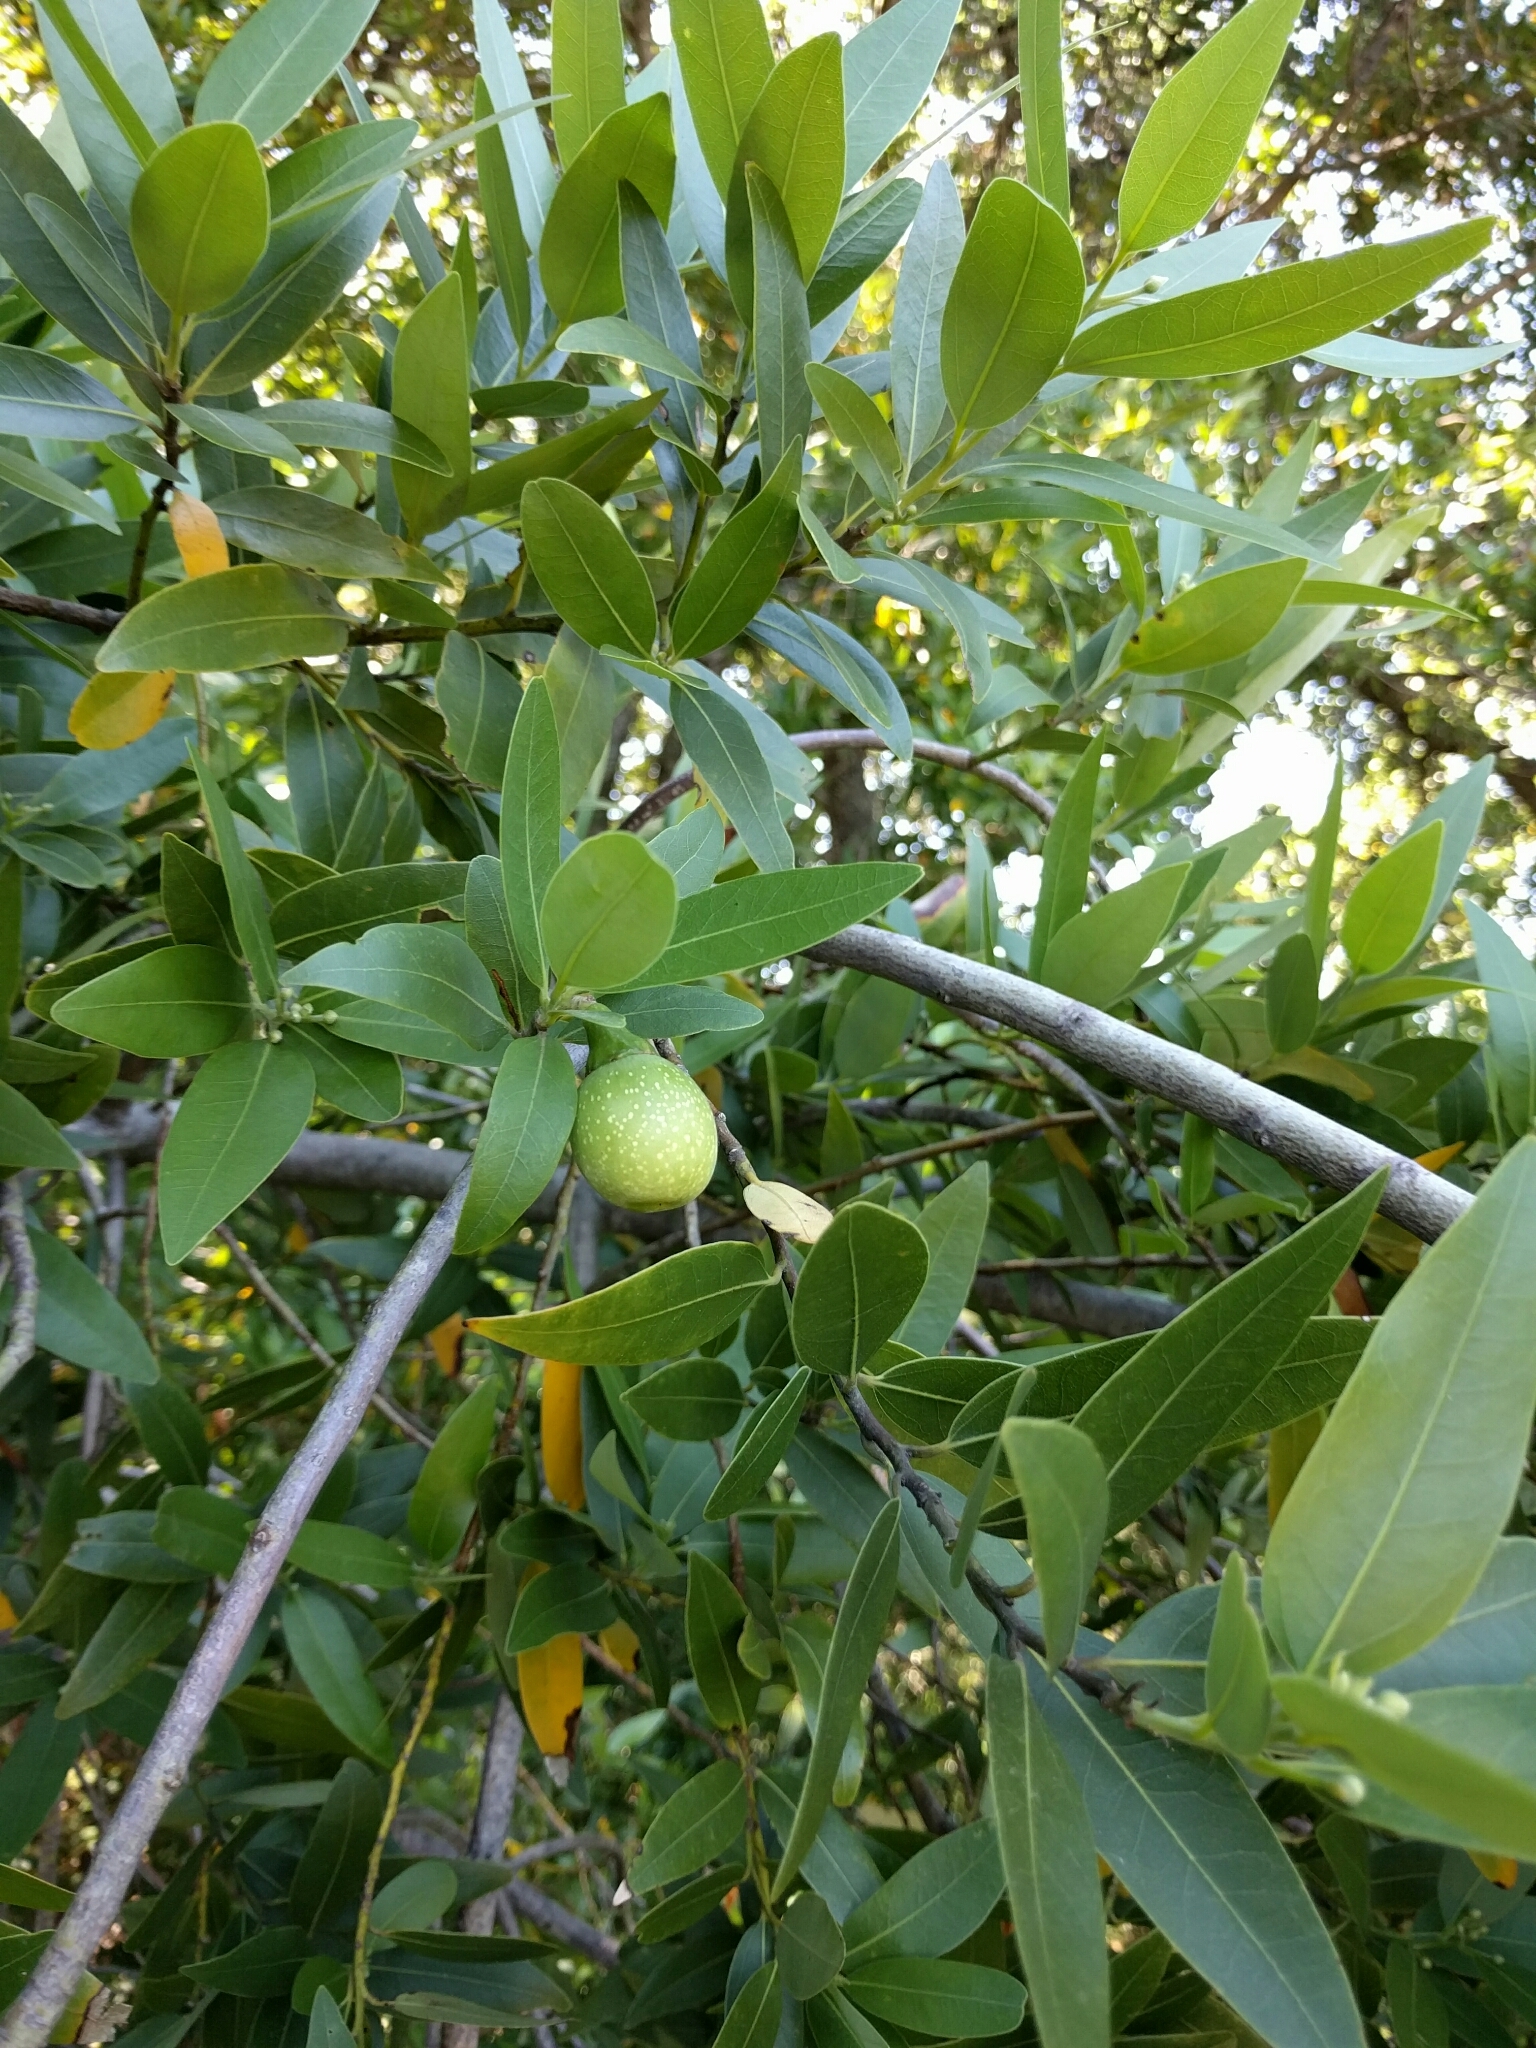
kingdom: Plantae
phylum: Tracheophyta
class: Magnoliopsida
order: Laurales
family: Lauraceae
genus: Umbellularia
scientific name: Umbellularia californica
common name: California bay
